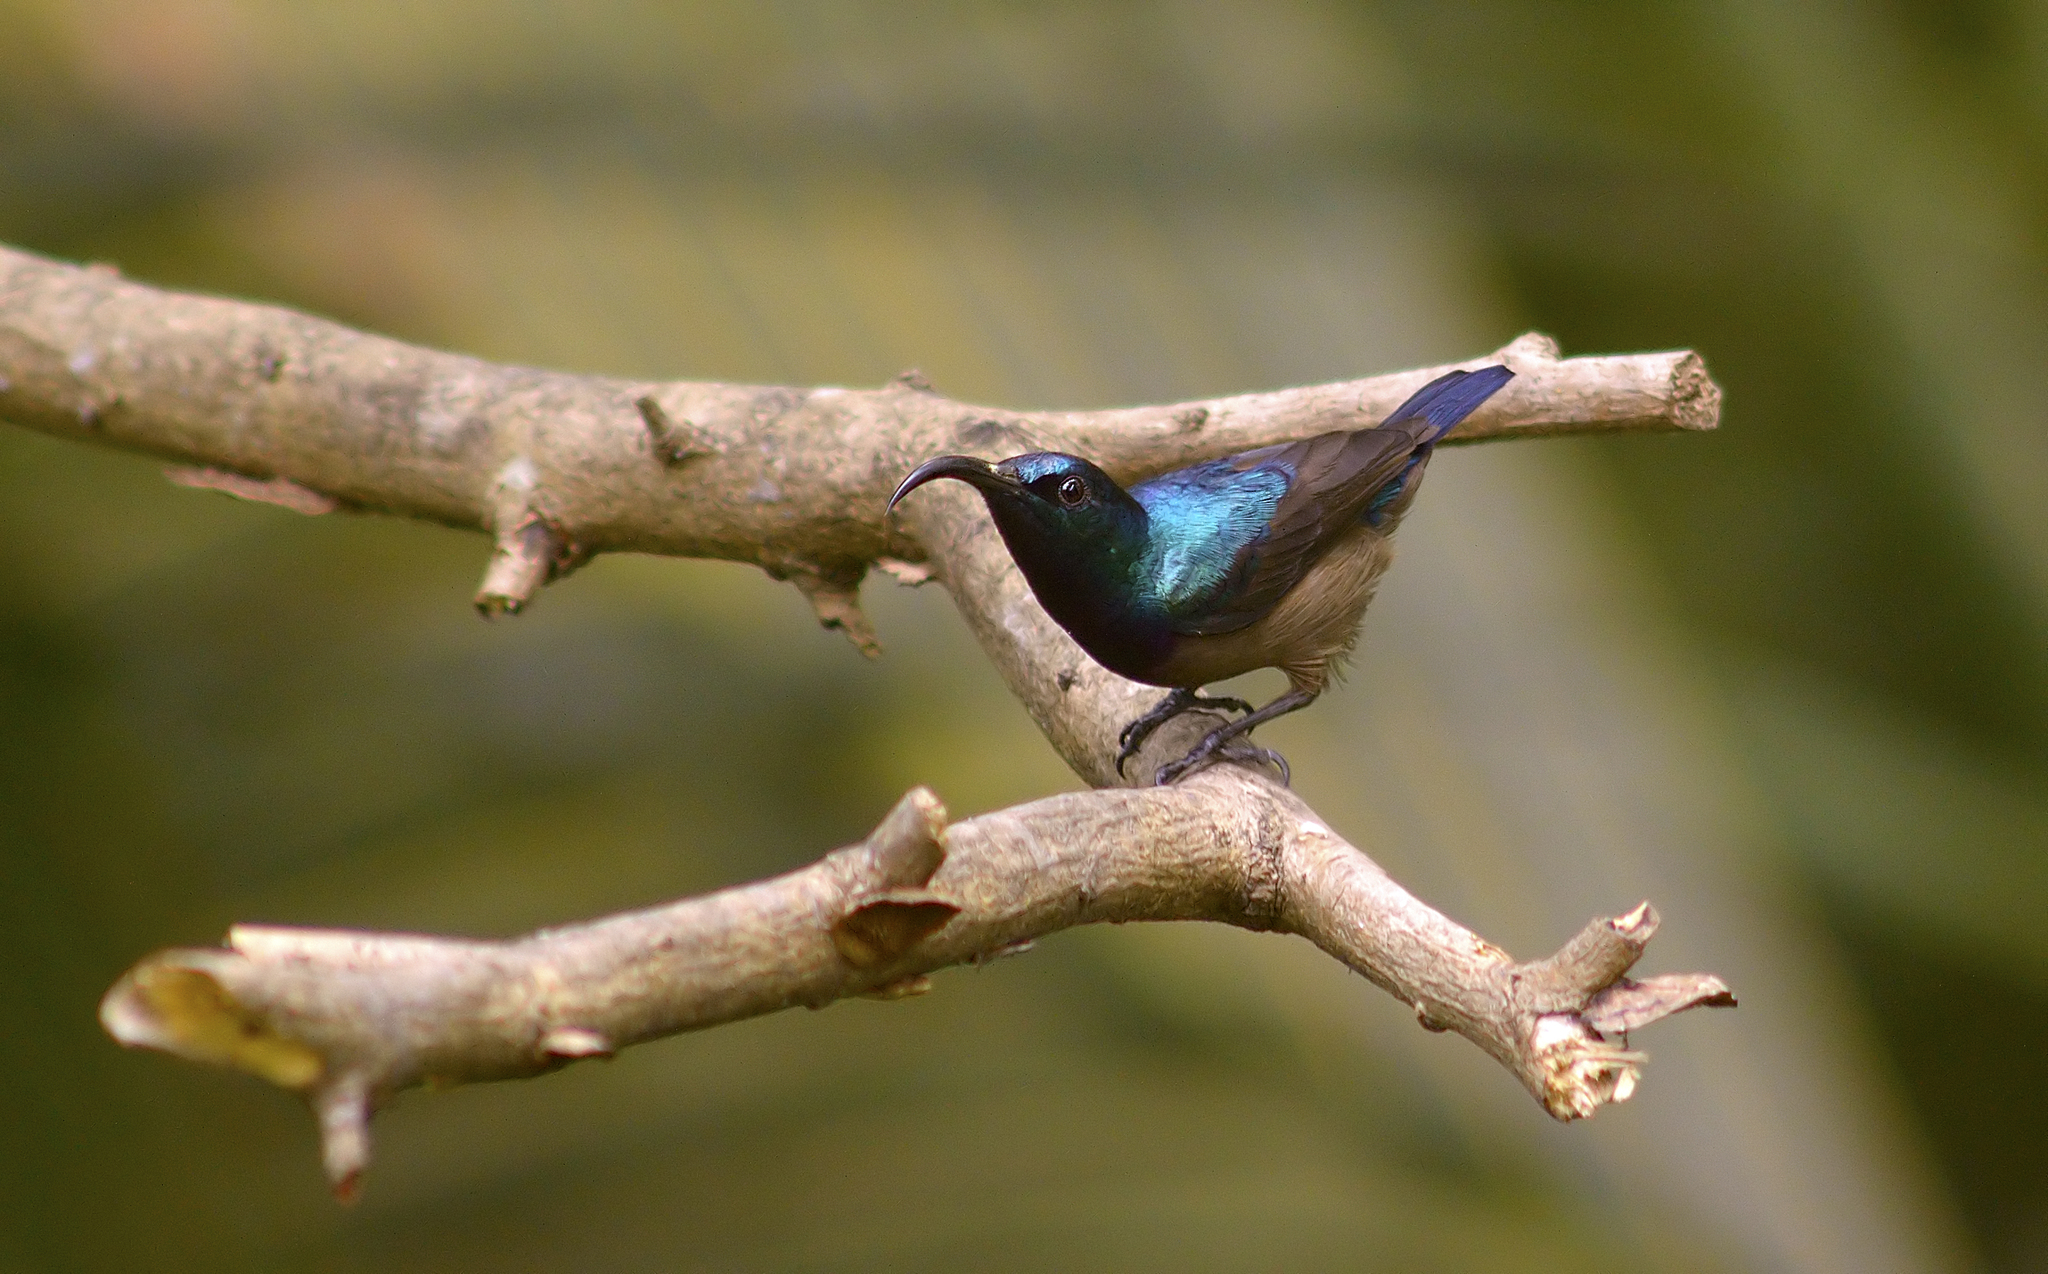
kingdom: Animalia
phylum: Chordata
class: Aves
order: Passeriformes
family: Nectariniidae
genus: Cinnyris
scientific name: Cinnyris lotenius
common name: Loten's sunbird
